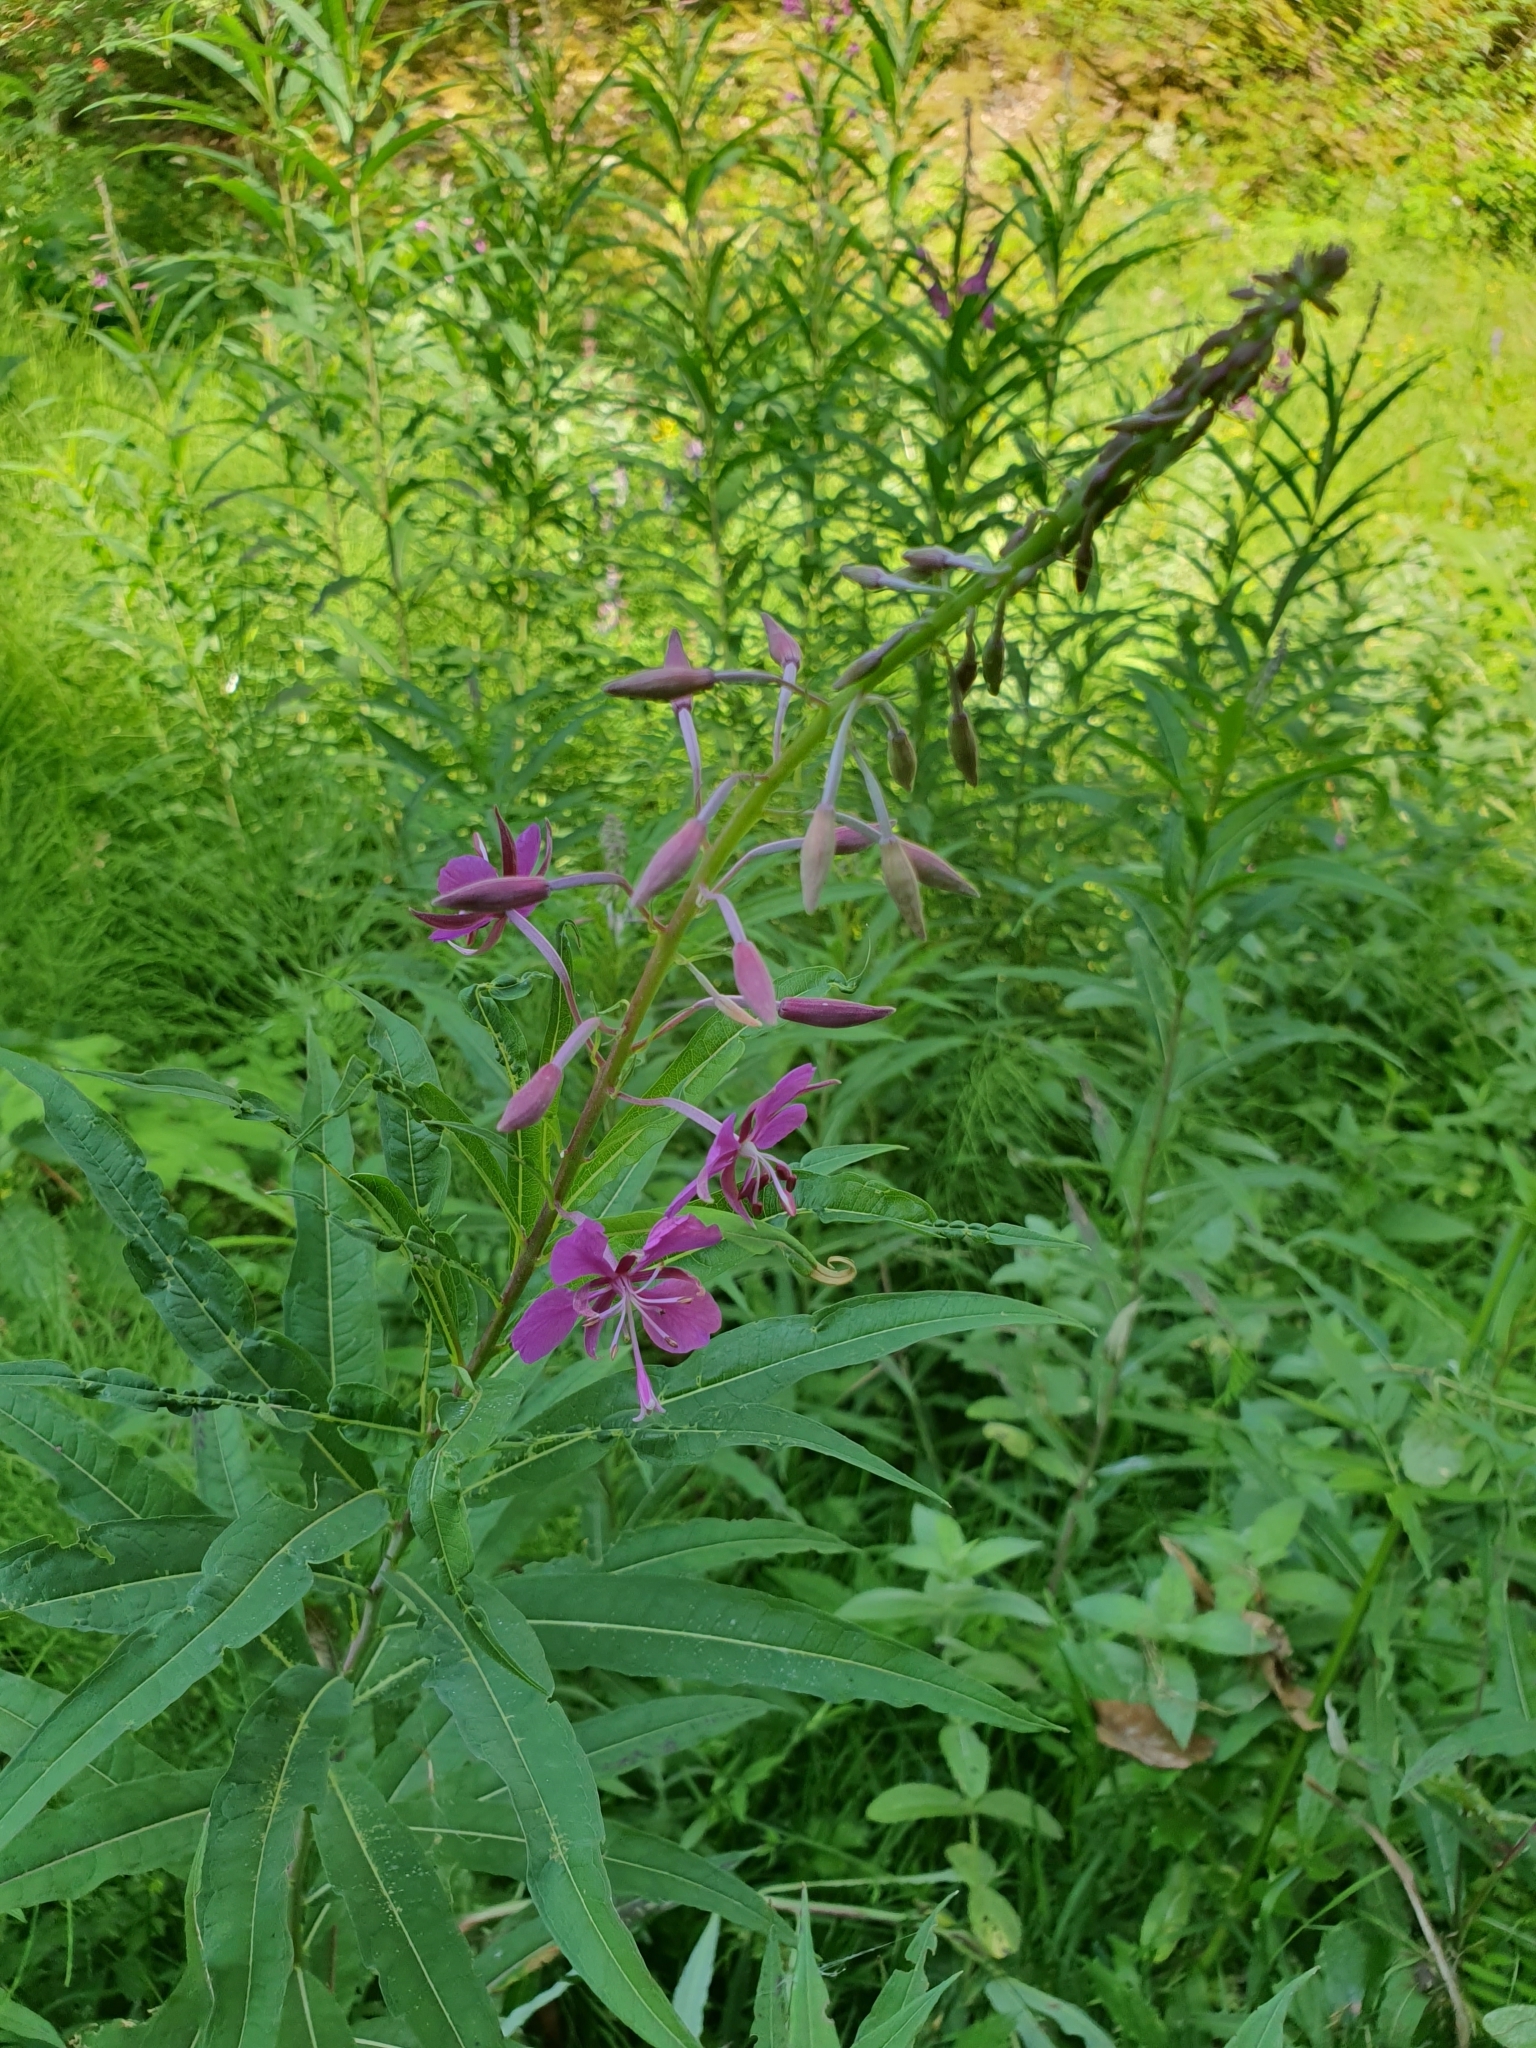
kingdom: Plantae
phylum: Tracheophyta
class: Magnoliopsida
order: Myrtales
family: Onagraceae
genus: Chamaenerion
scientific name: Chamaenerion angustifolium
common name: Fireweed
